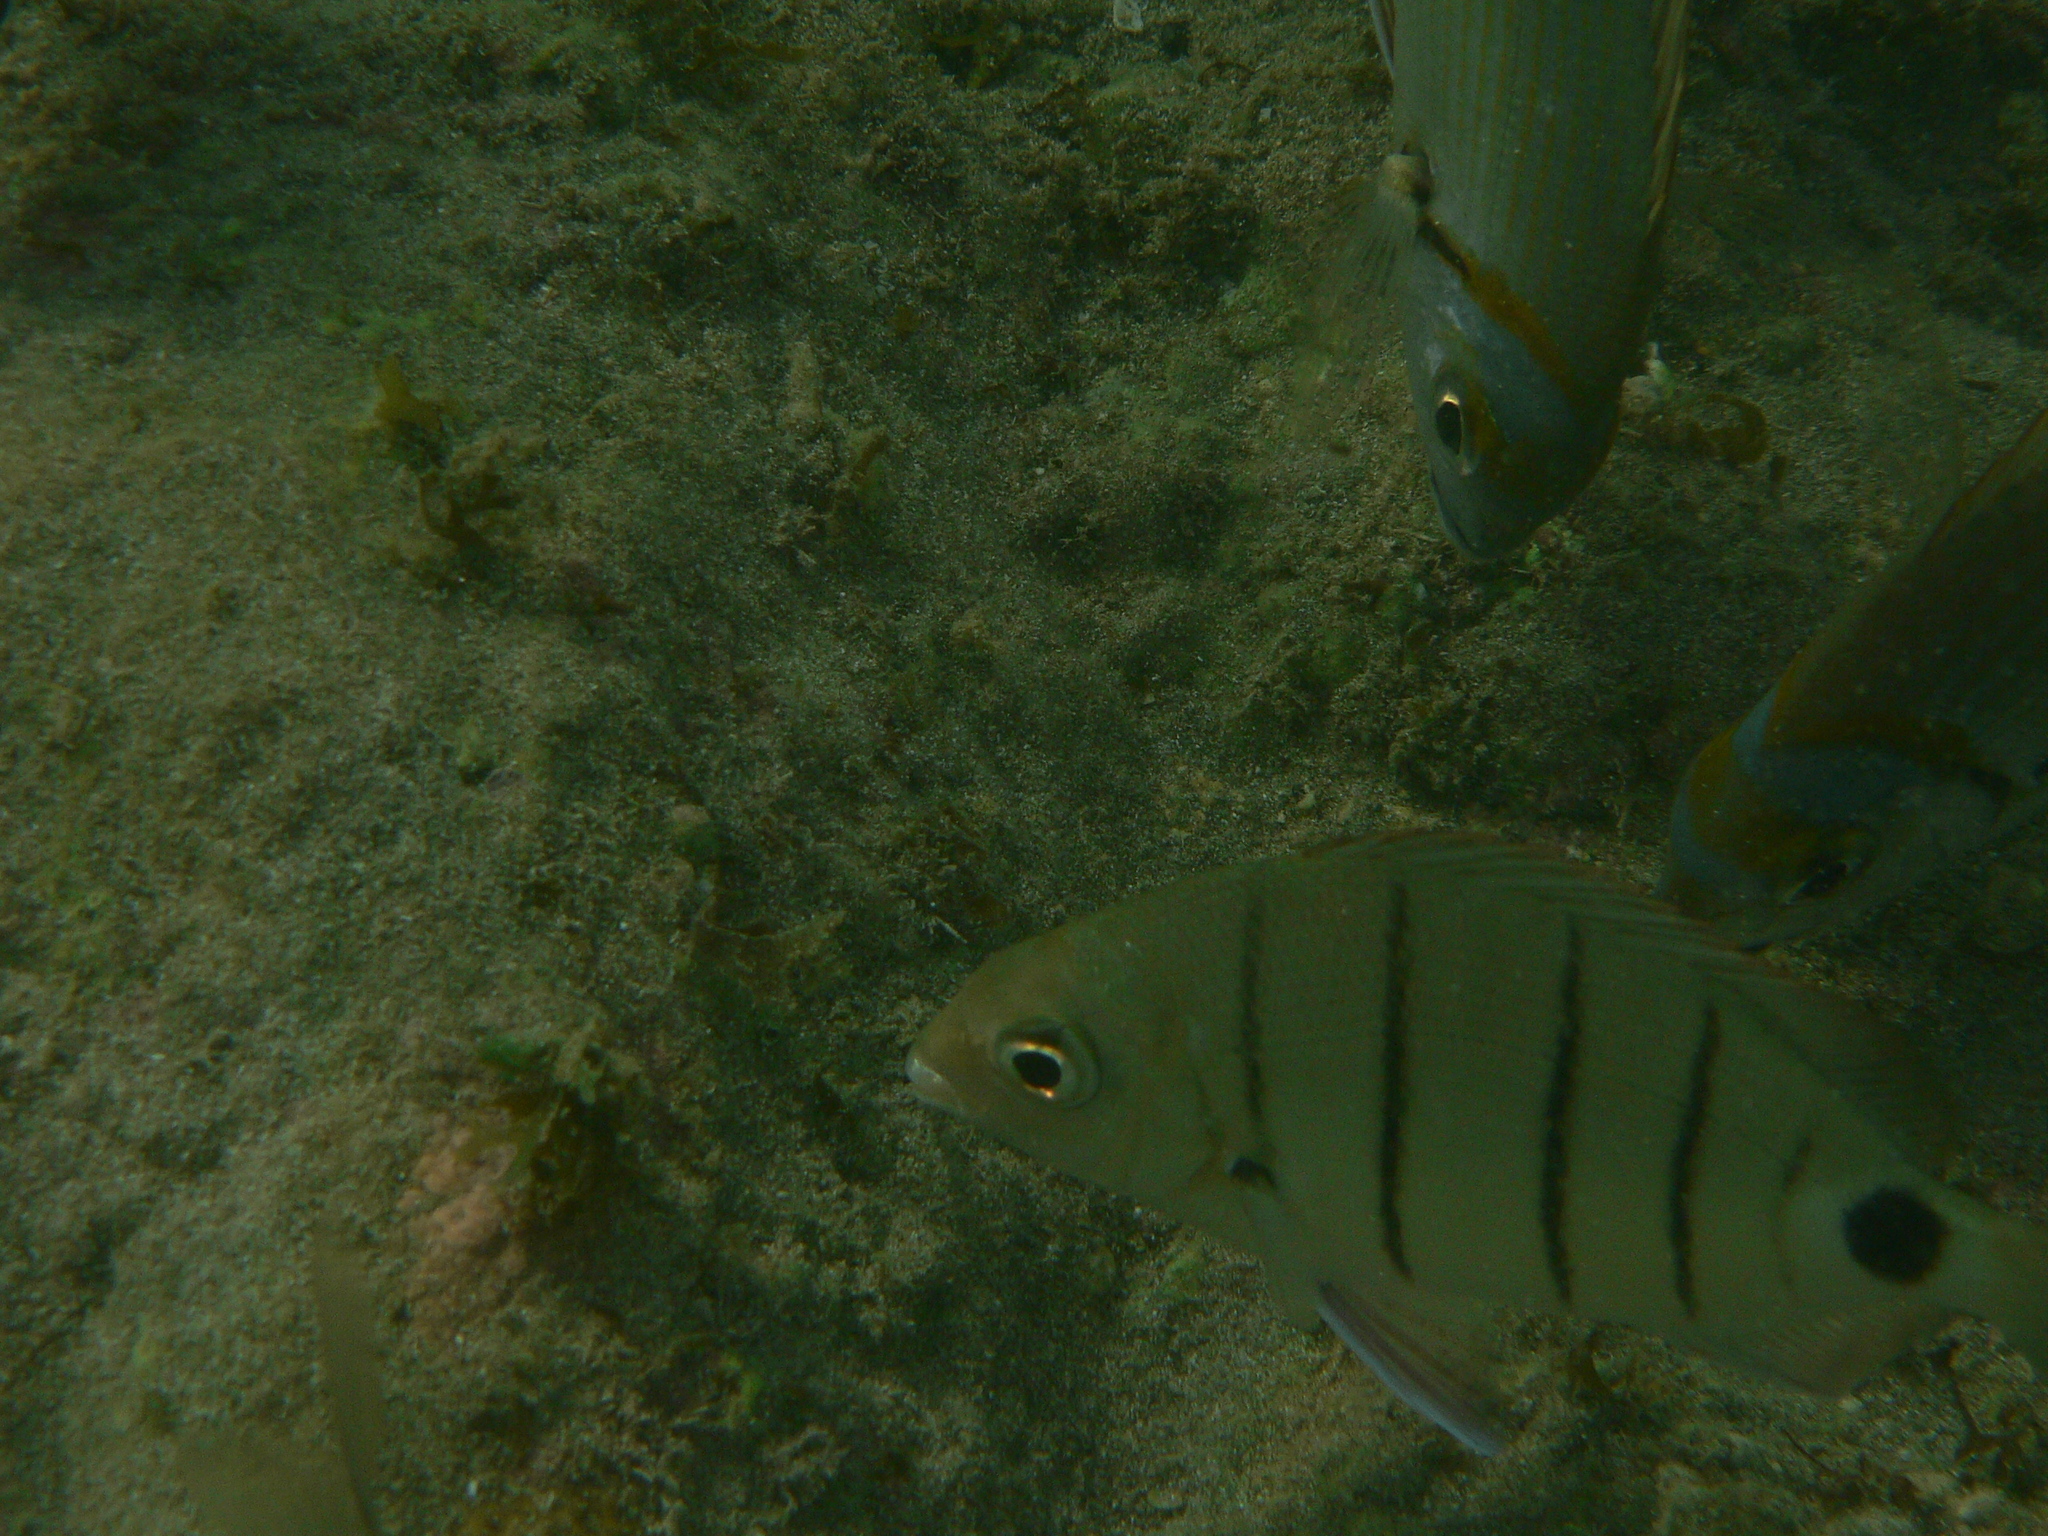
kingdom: Animalia
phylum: Chordata
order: Perciformes
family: Sparidae
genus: Diplodus
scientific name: Diplodus lineatus
